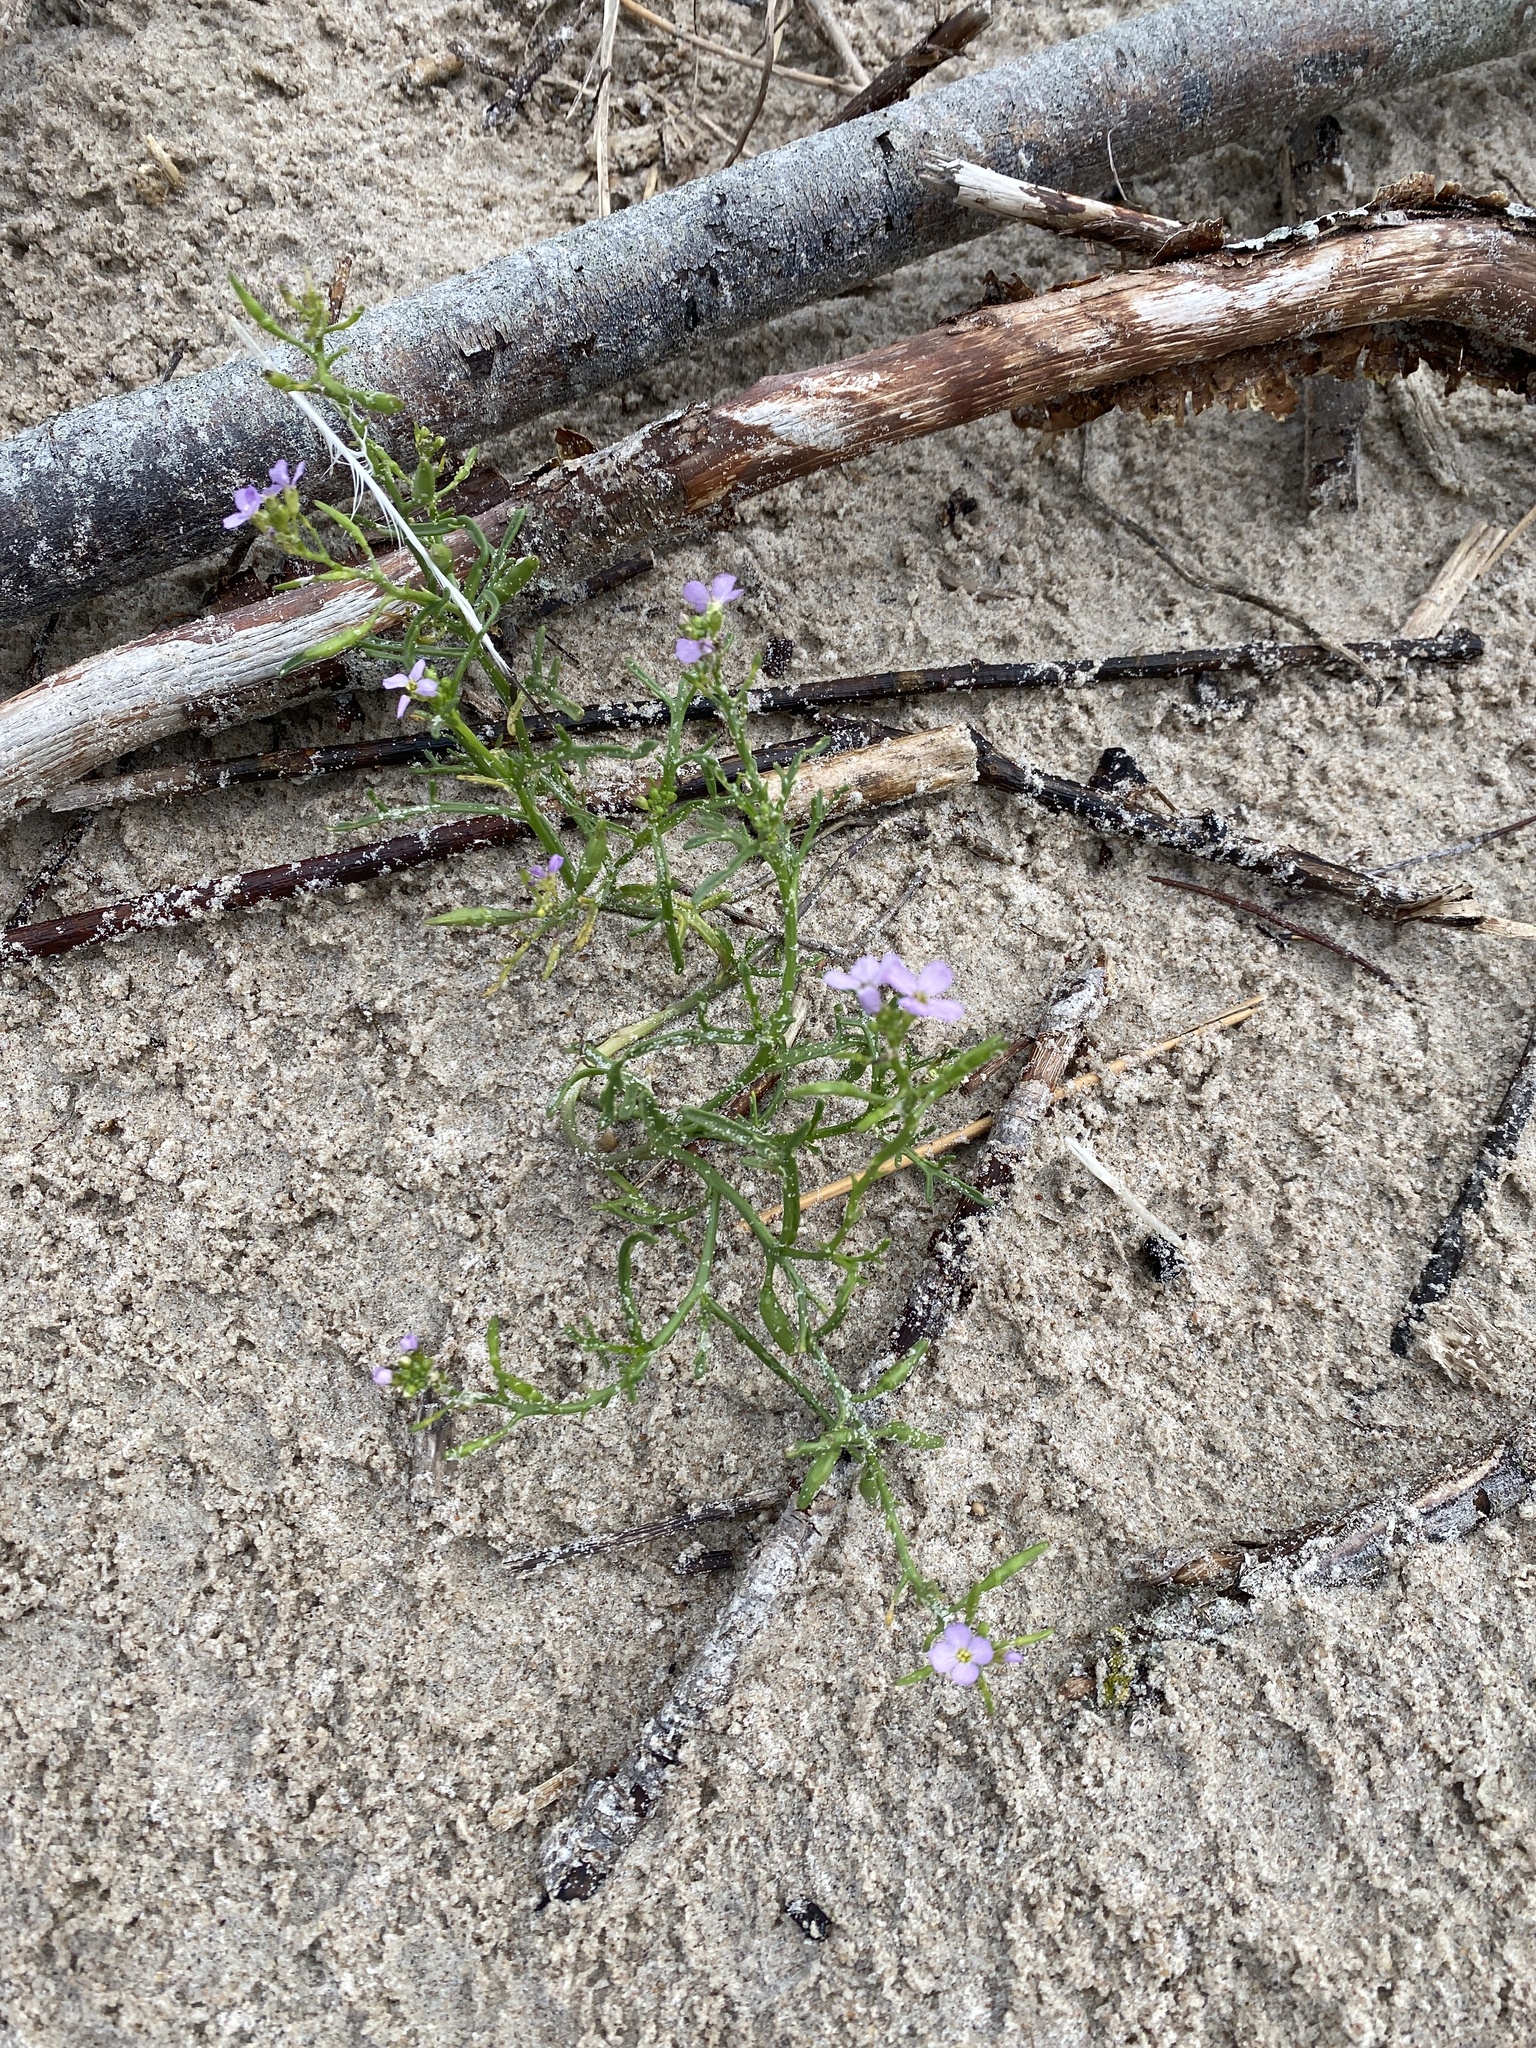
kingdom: Plantae
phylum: Tracheophyta
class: Magnoliopsida
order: Brassicales
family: Brassicaceae
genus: Cakile
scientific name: Cakile maritima
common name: Sea rocket
